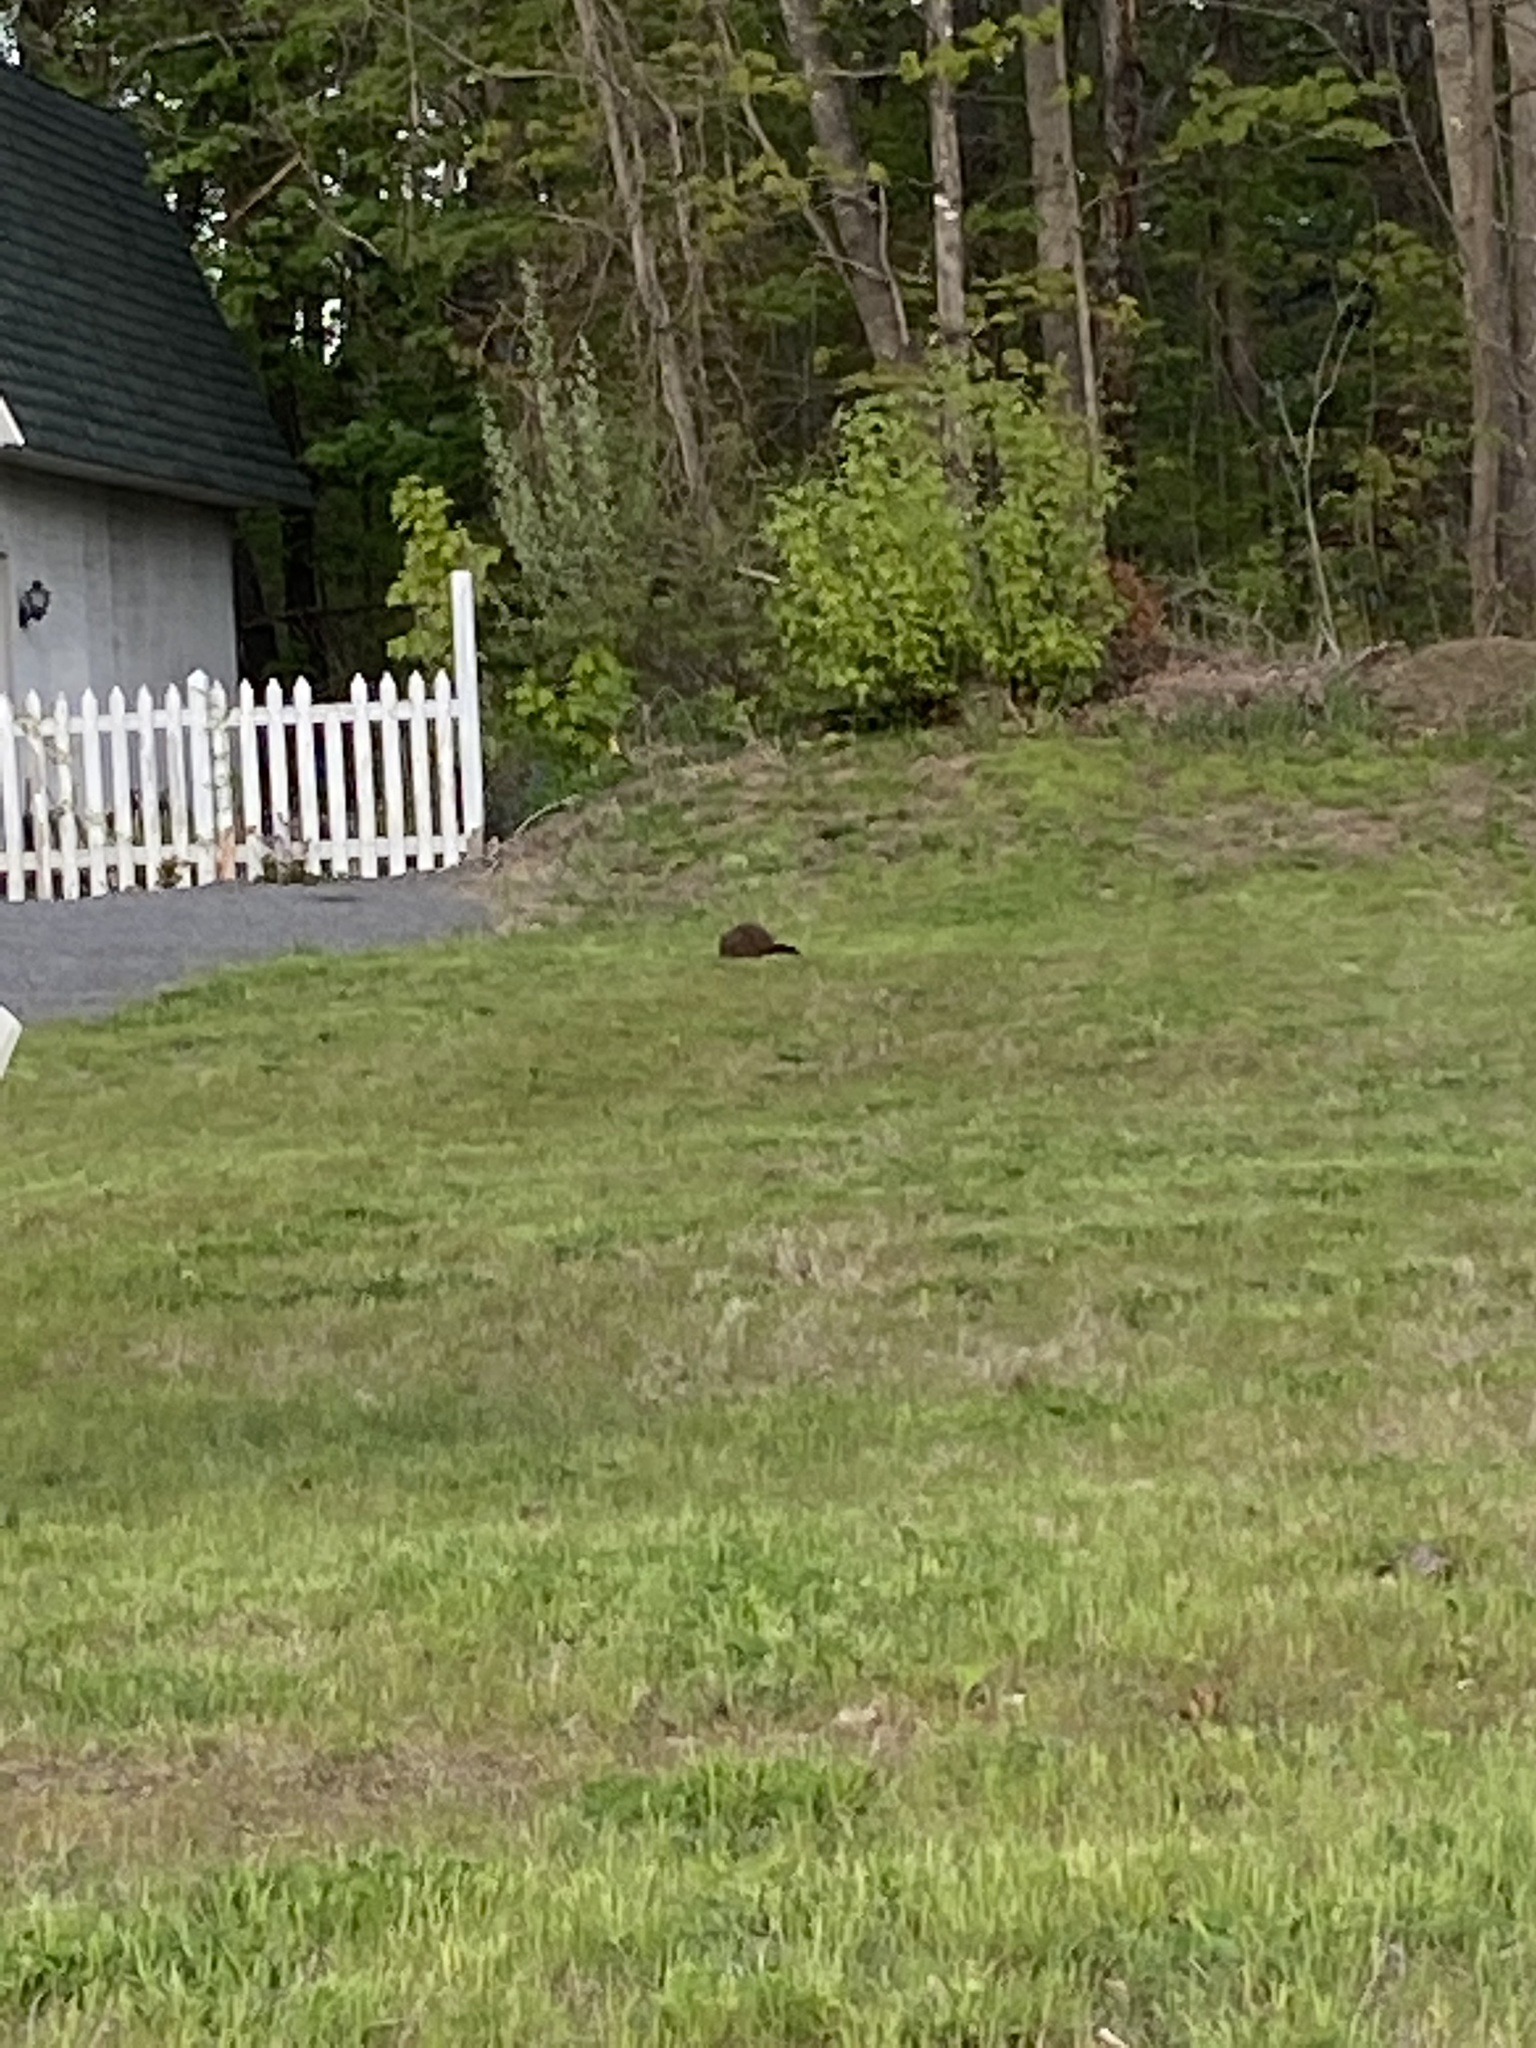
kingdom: Animalia
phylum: Chordata
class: Mammalia
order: Rodentia
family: Sciuridae
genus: Marmota
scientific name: Marmota monax
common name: Groundhog
